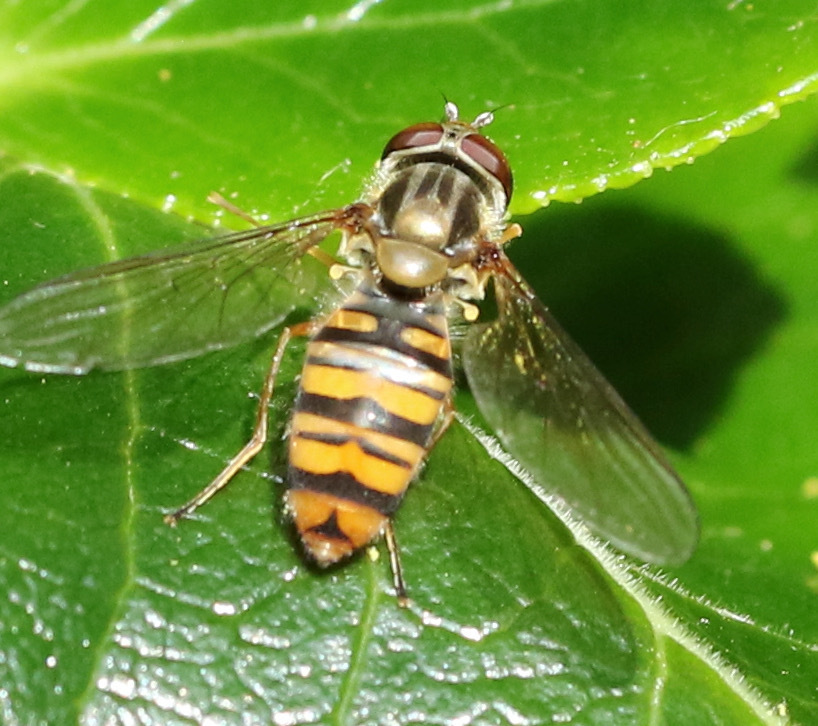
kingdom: Animalia
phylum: Arthropoda
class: Insecta
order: Diptera
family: Syrphidae
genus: Episyrphus
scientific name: Episyrphus balteatus
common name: Marmalade hoverfly
